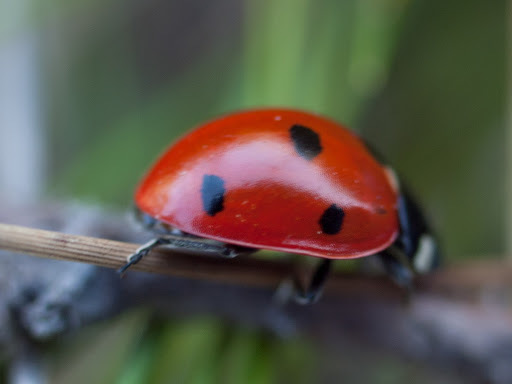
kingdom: Animalia
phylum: Arthropoda
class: Insecta
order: Coleoptera
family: Coccinellidae
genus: Coccinella
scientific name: Coccinella septempunctata
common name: Sevenspotted lady beetle
